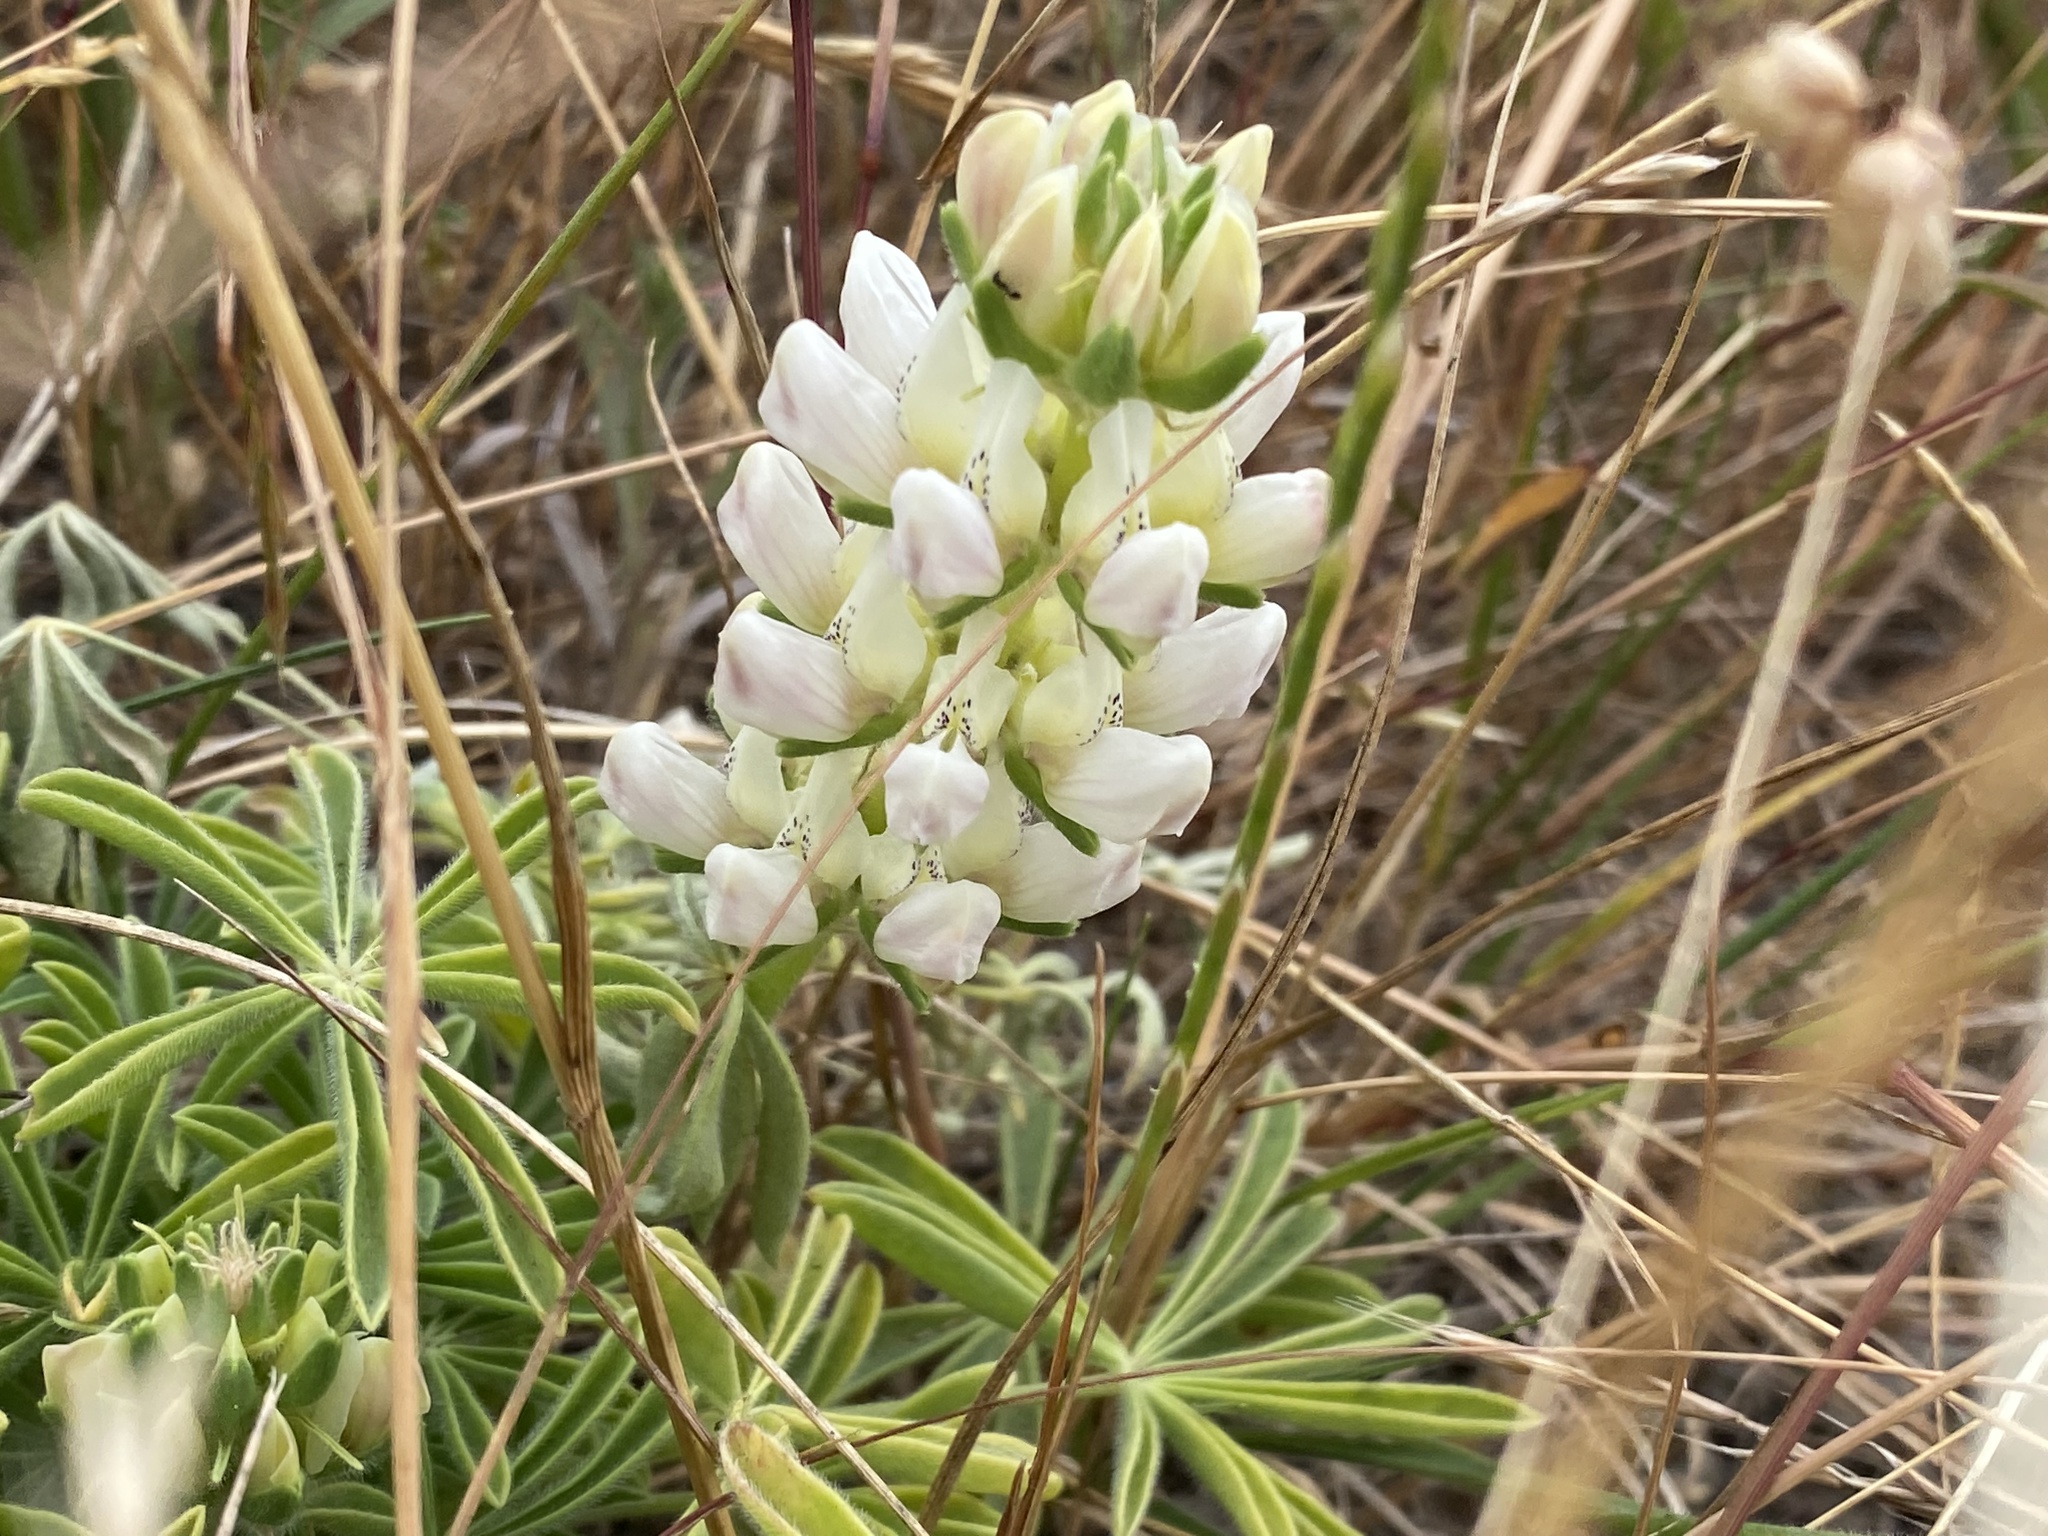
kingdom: Plantae
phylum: Tracheophyta
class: Magnoliopsida
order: Fabales
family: Fabaceae
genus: Lupinus
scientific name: Lupinus microcarpus
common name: Chick lupine
